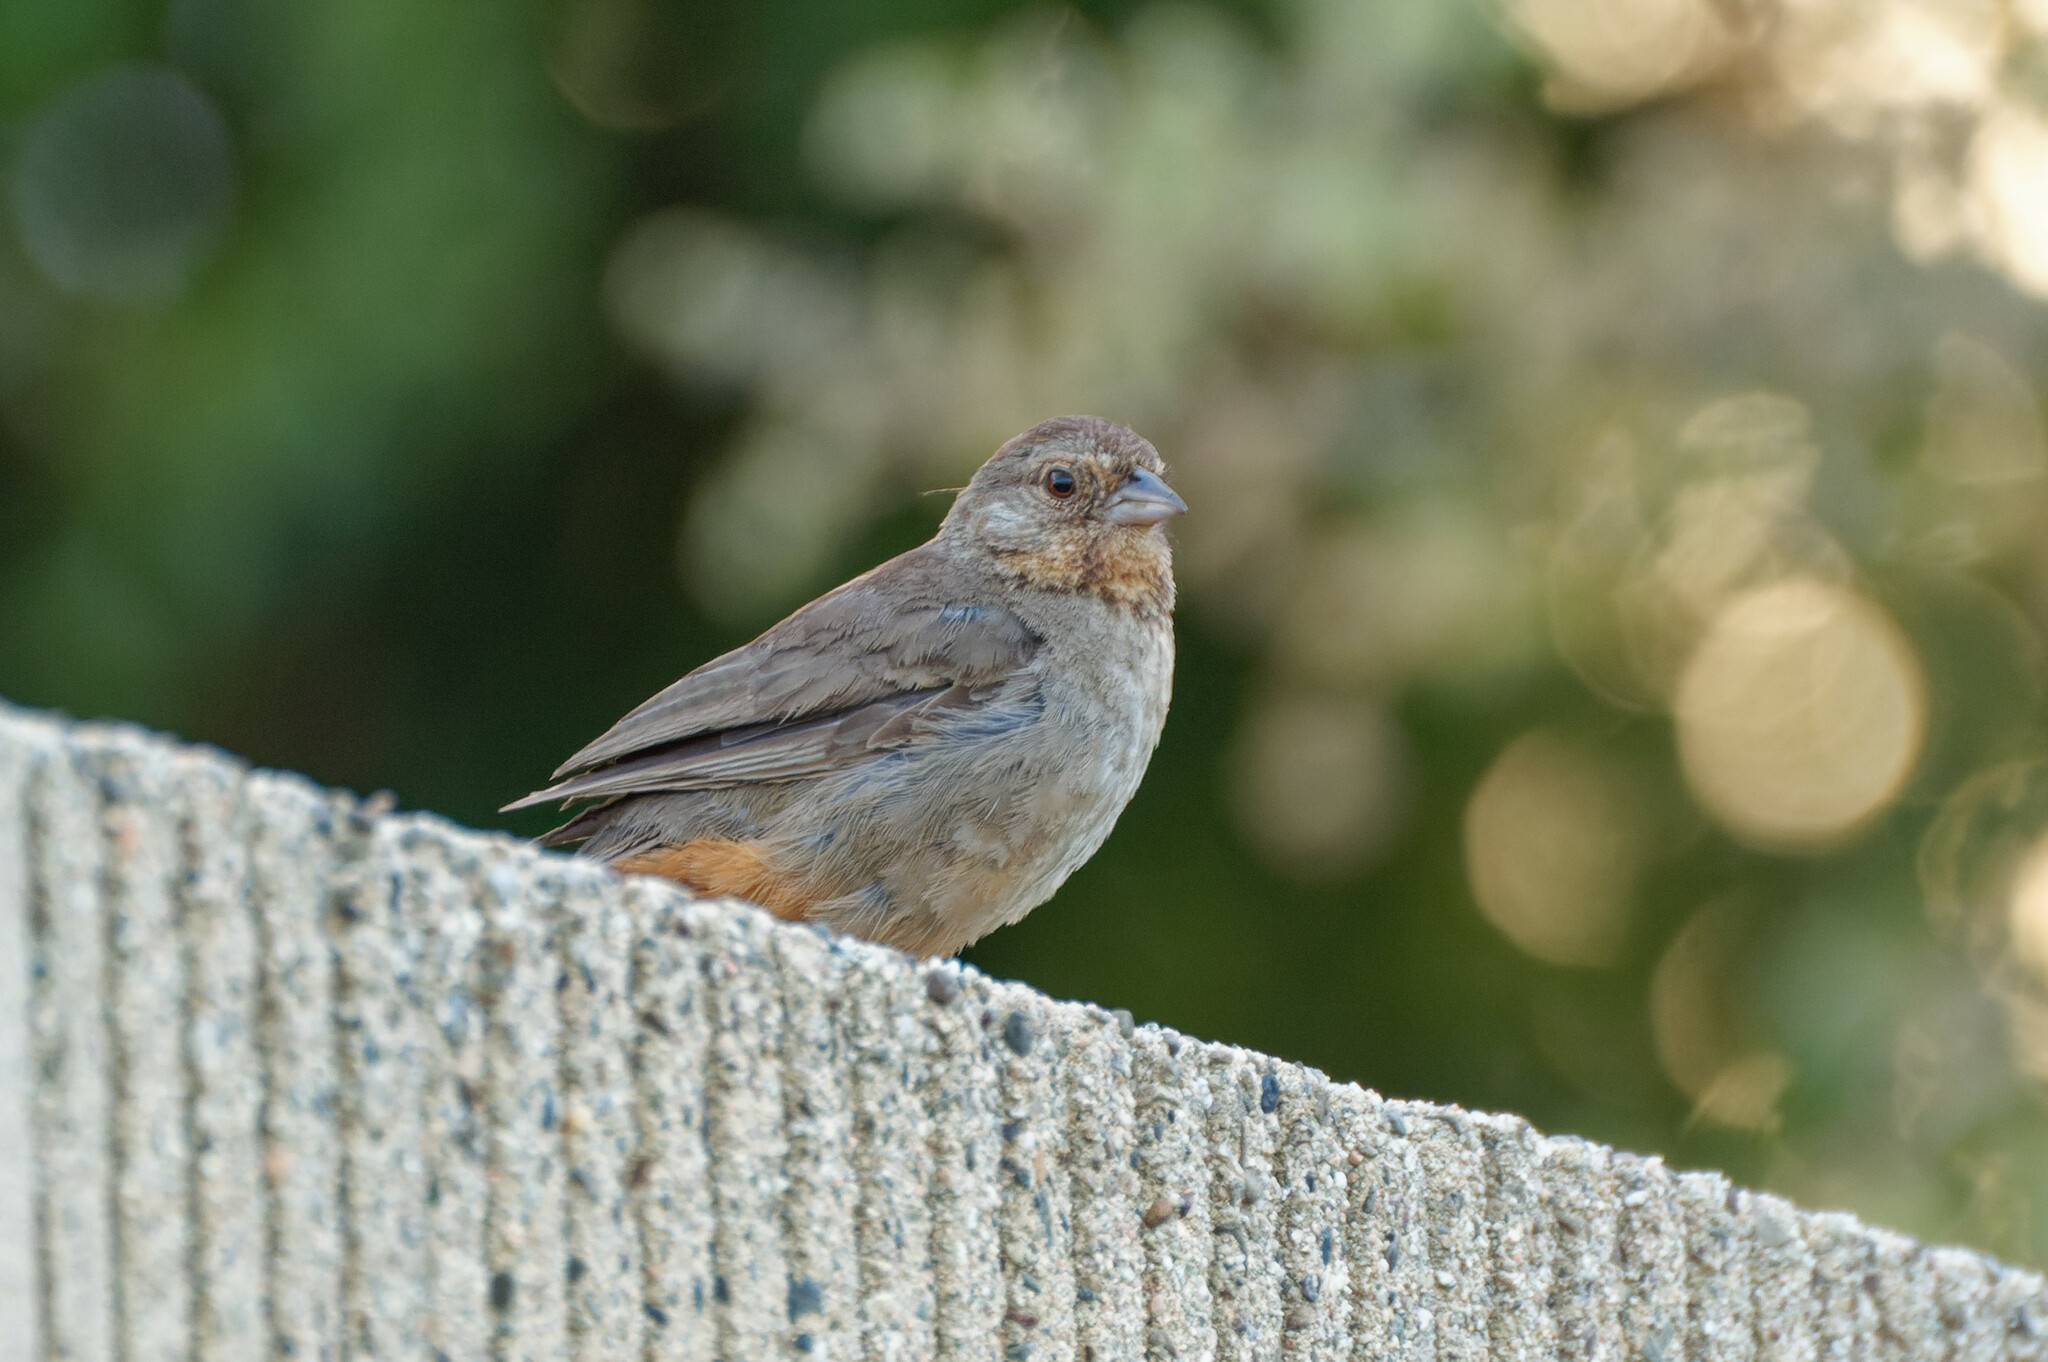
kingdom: Animalia
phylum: Chordata
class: Aves
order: Passeriformes
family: Passerellidae
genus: Melozone
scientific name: Melozone crissalis
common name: California towhee
